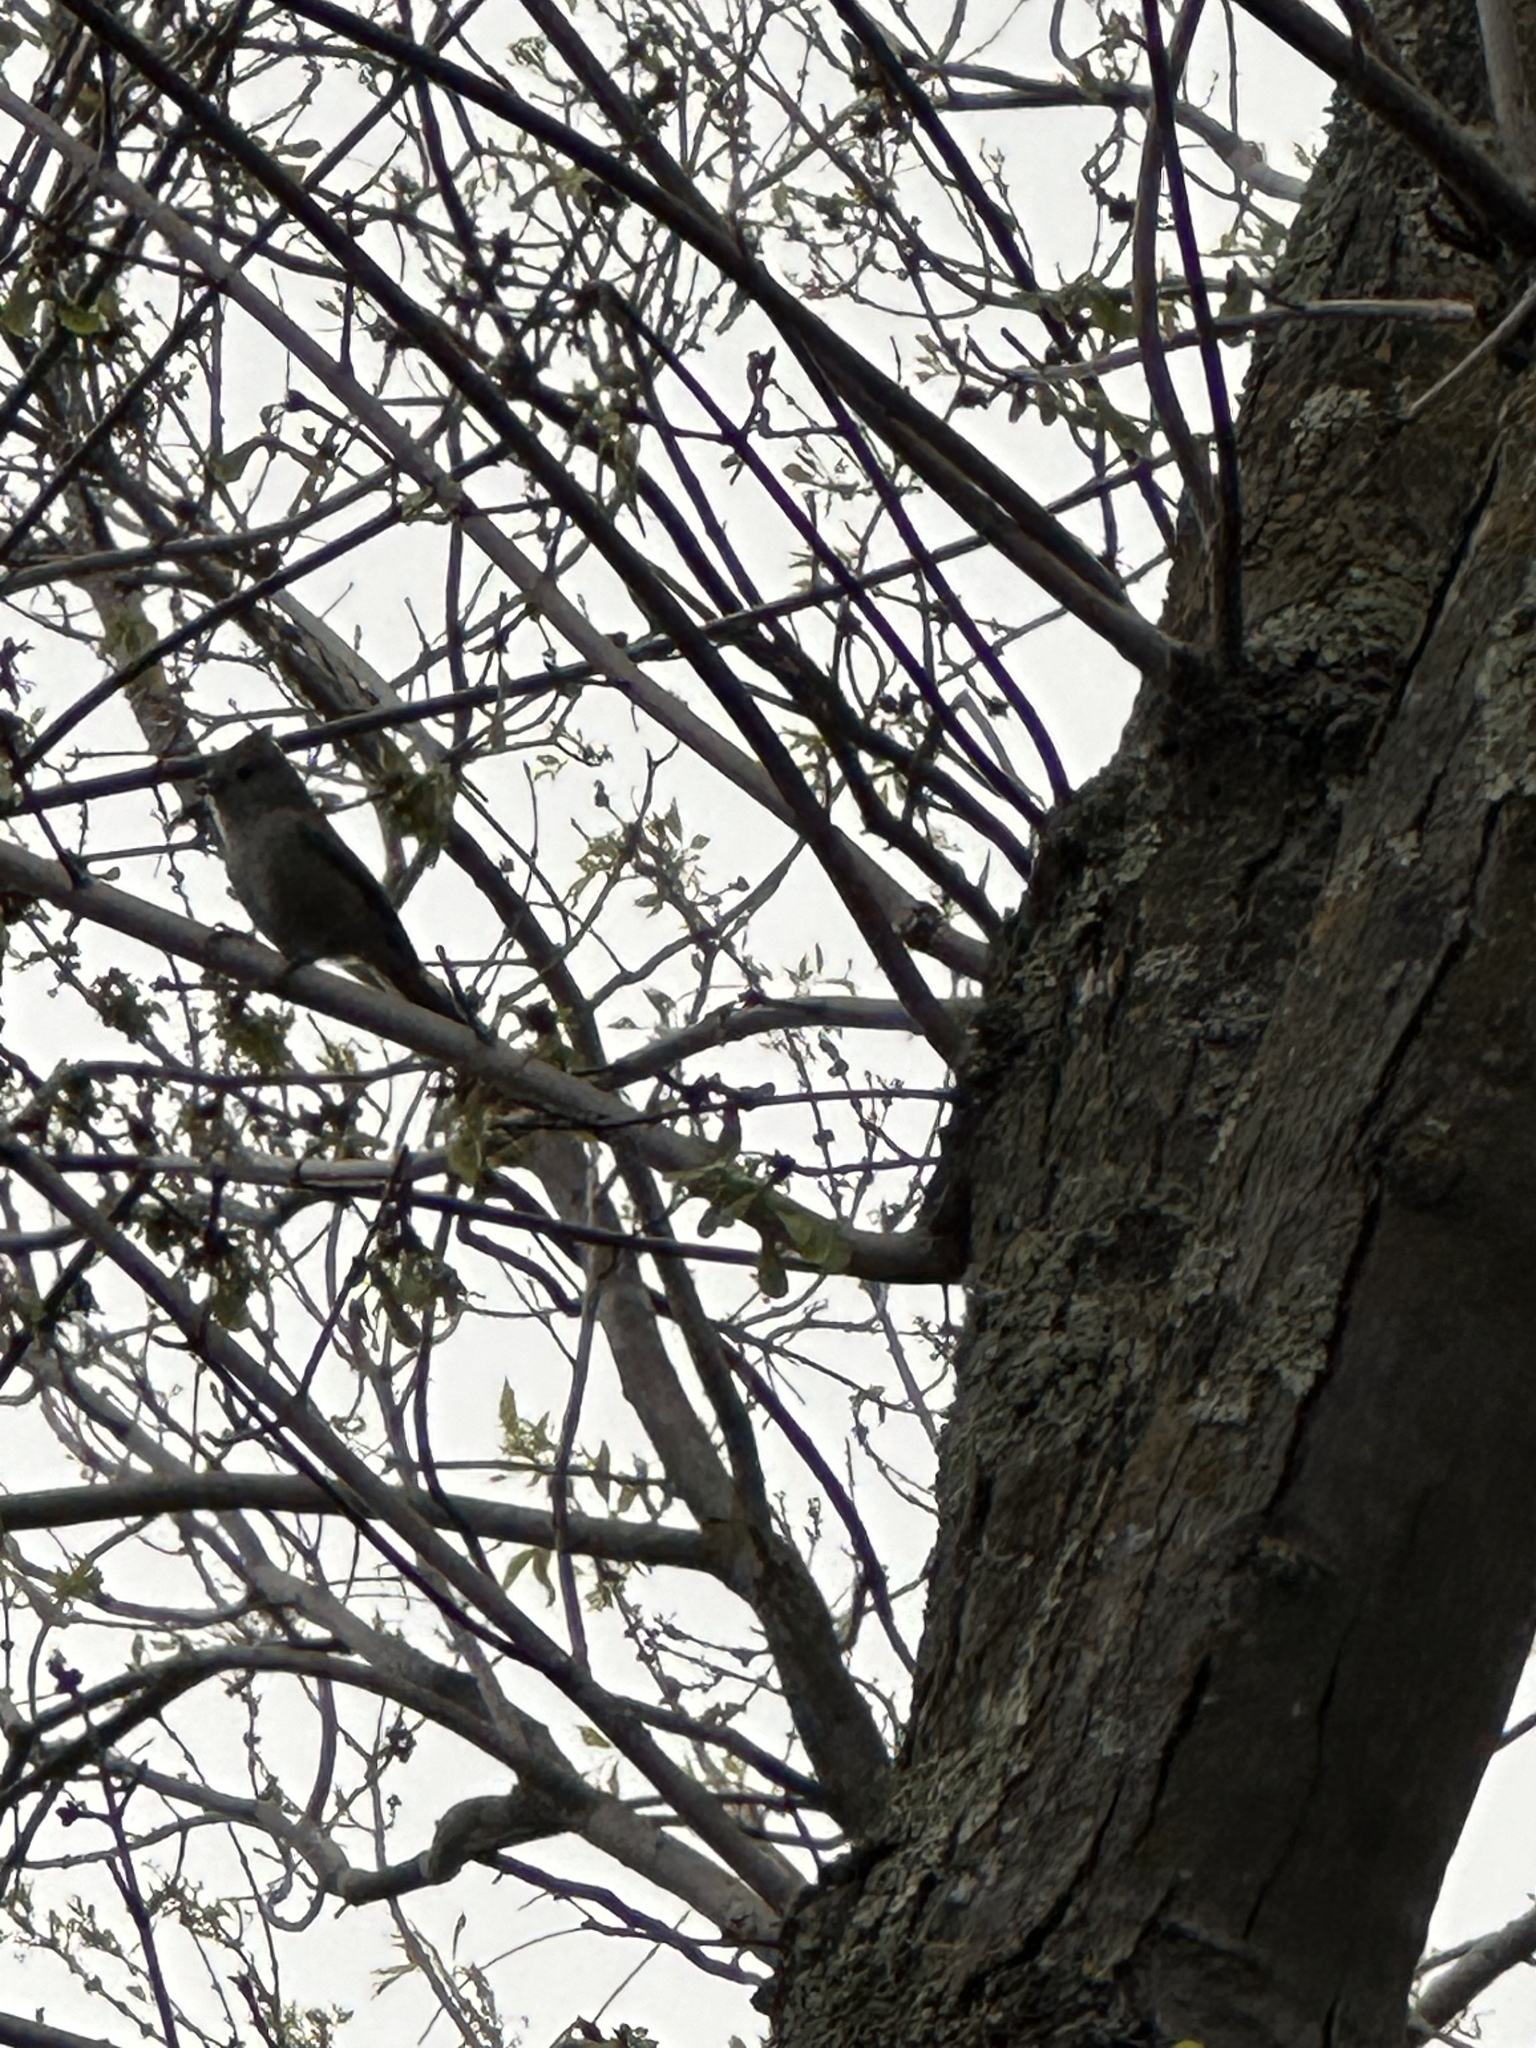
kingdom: Animalia
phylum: Chordata
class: Aves
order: Passeriformes
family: Paridae
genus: Baeolophus
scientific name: Baeolophus inornatus
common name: Oak titmouse
